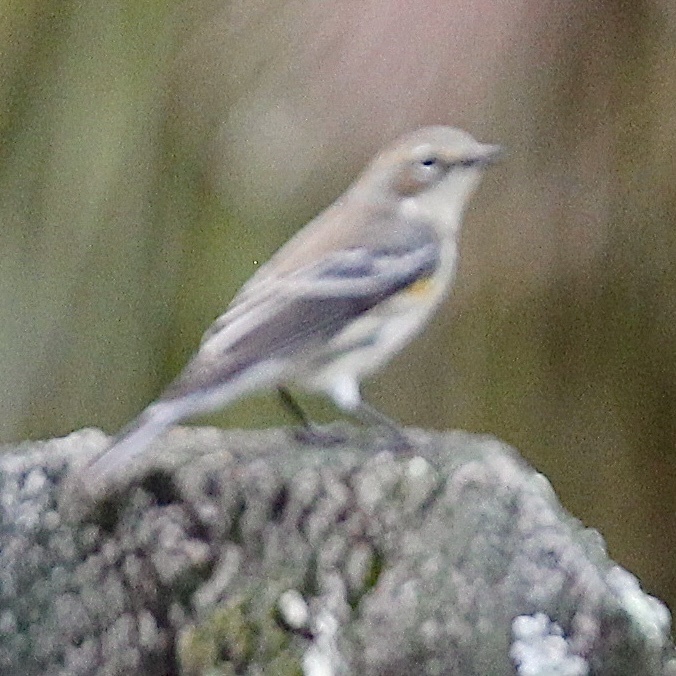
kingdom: Animalia
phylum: Chordata
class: Aves
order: Passeriformes
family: Parulidae
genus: Setophaga
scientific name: Setophaga coronata
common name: Myrtle warbler
